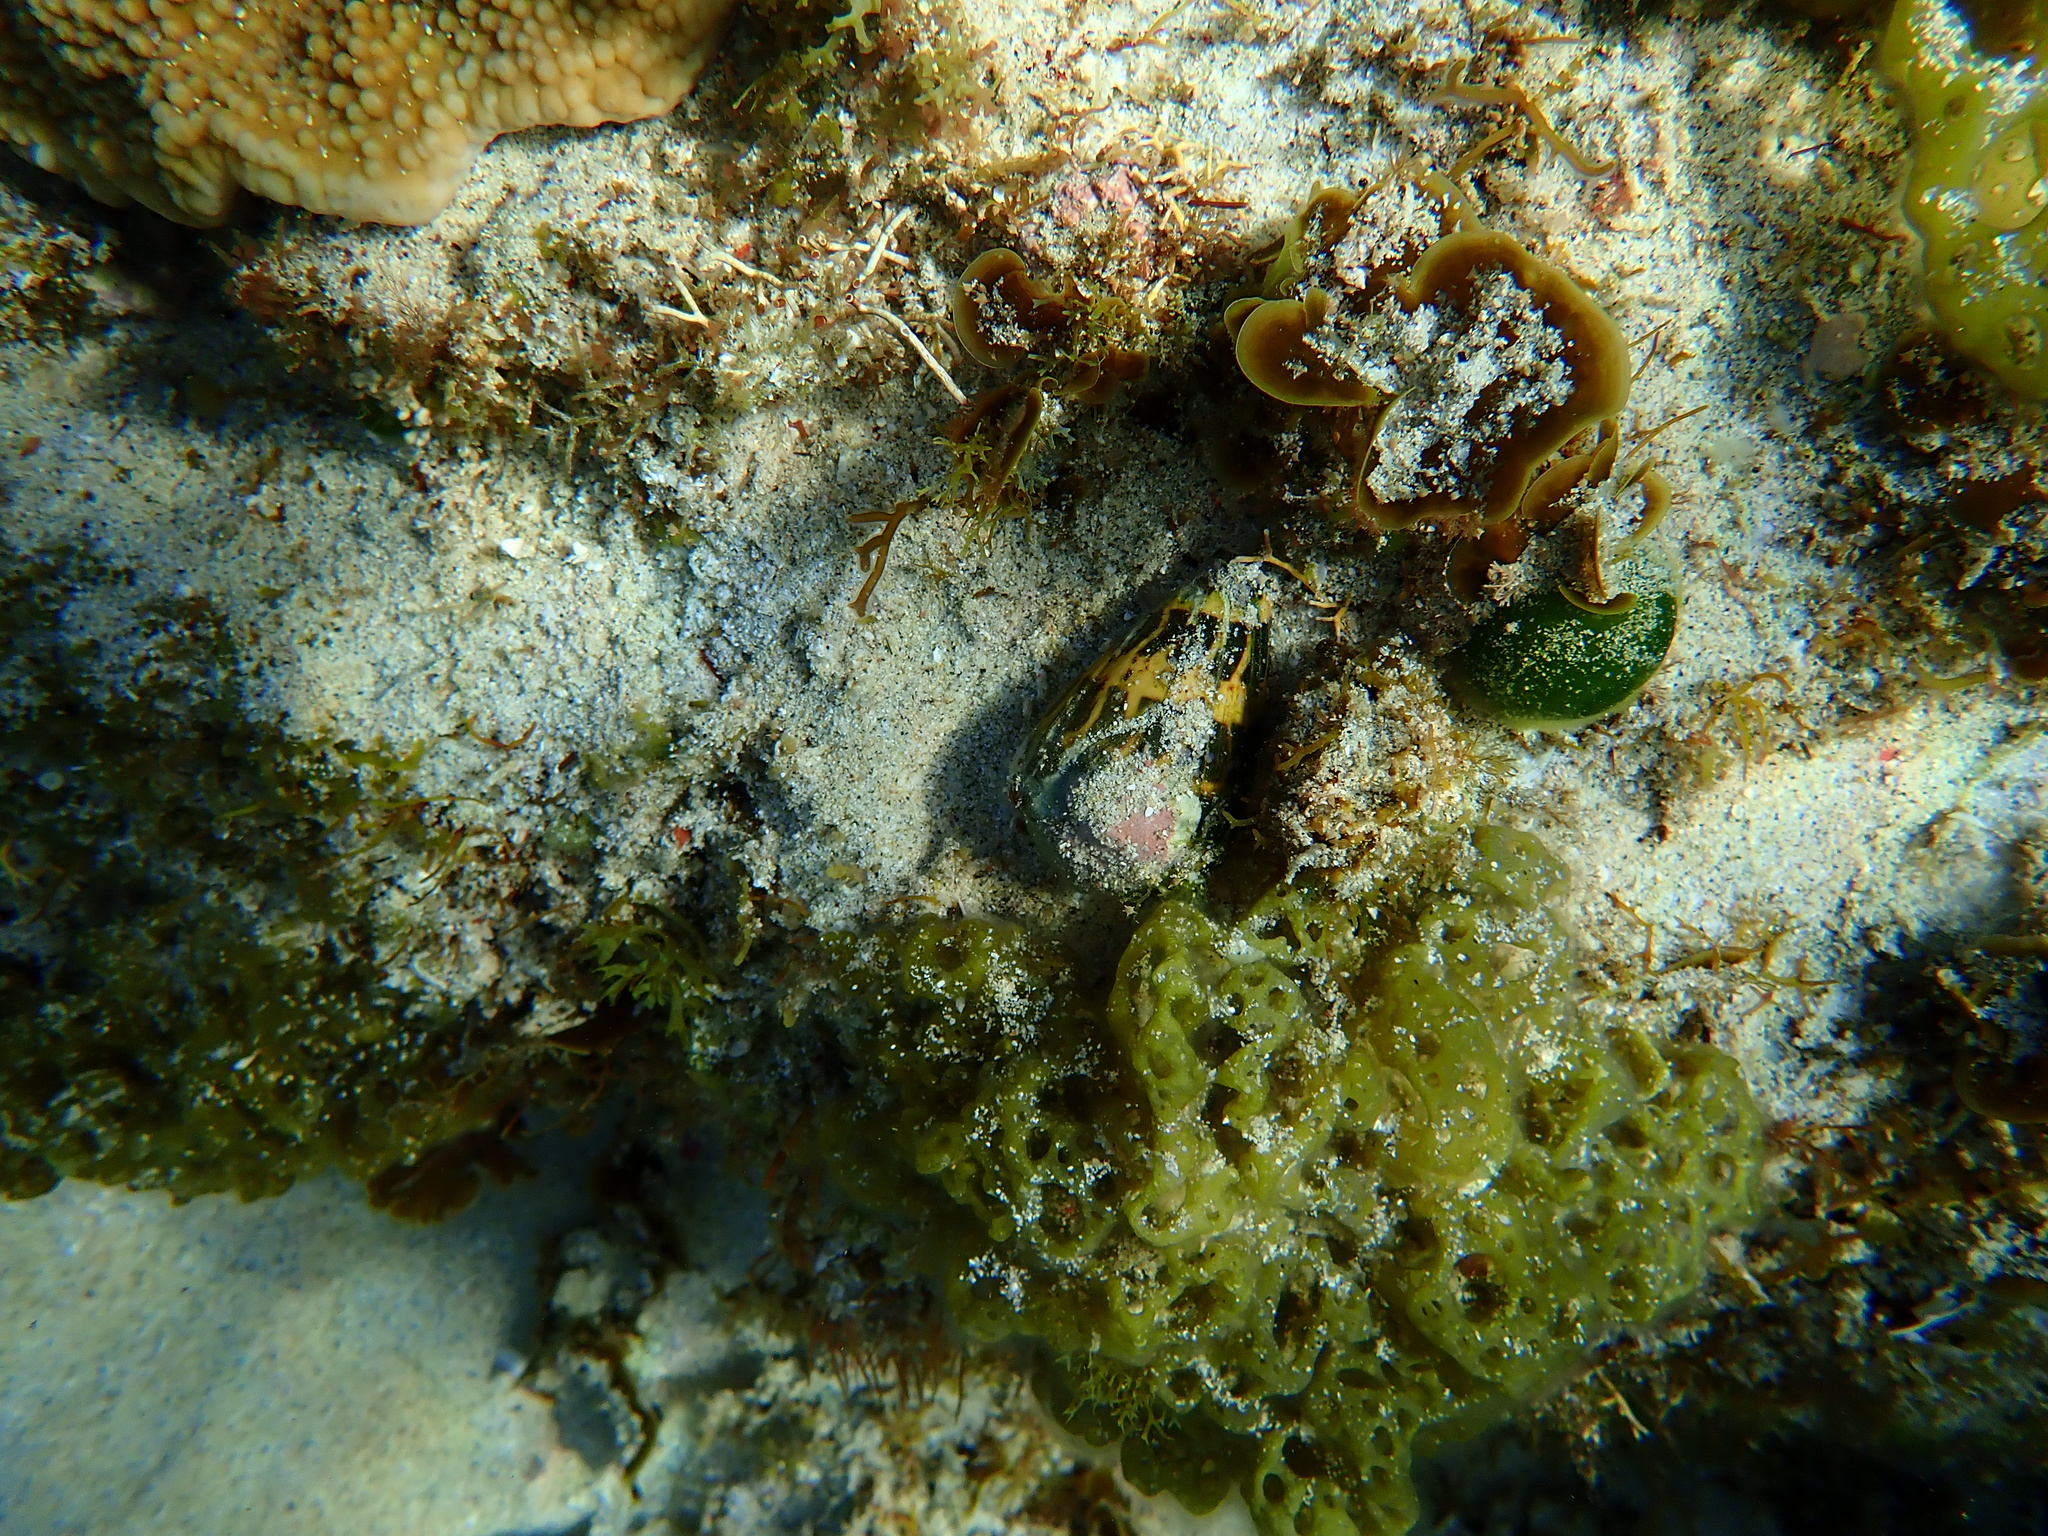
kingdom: Animalia
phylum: Mollusca
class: Gastropoda
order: Neogastropoda
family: Conidae
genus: Conus
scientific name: Conus ebraeus
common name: Hebrew cone
